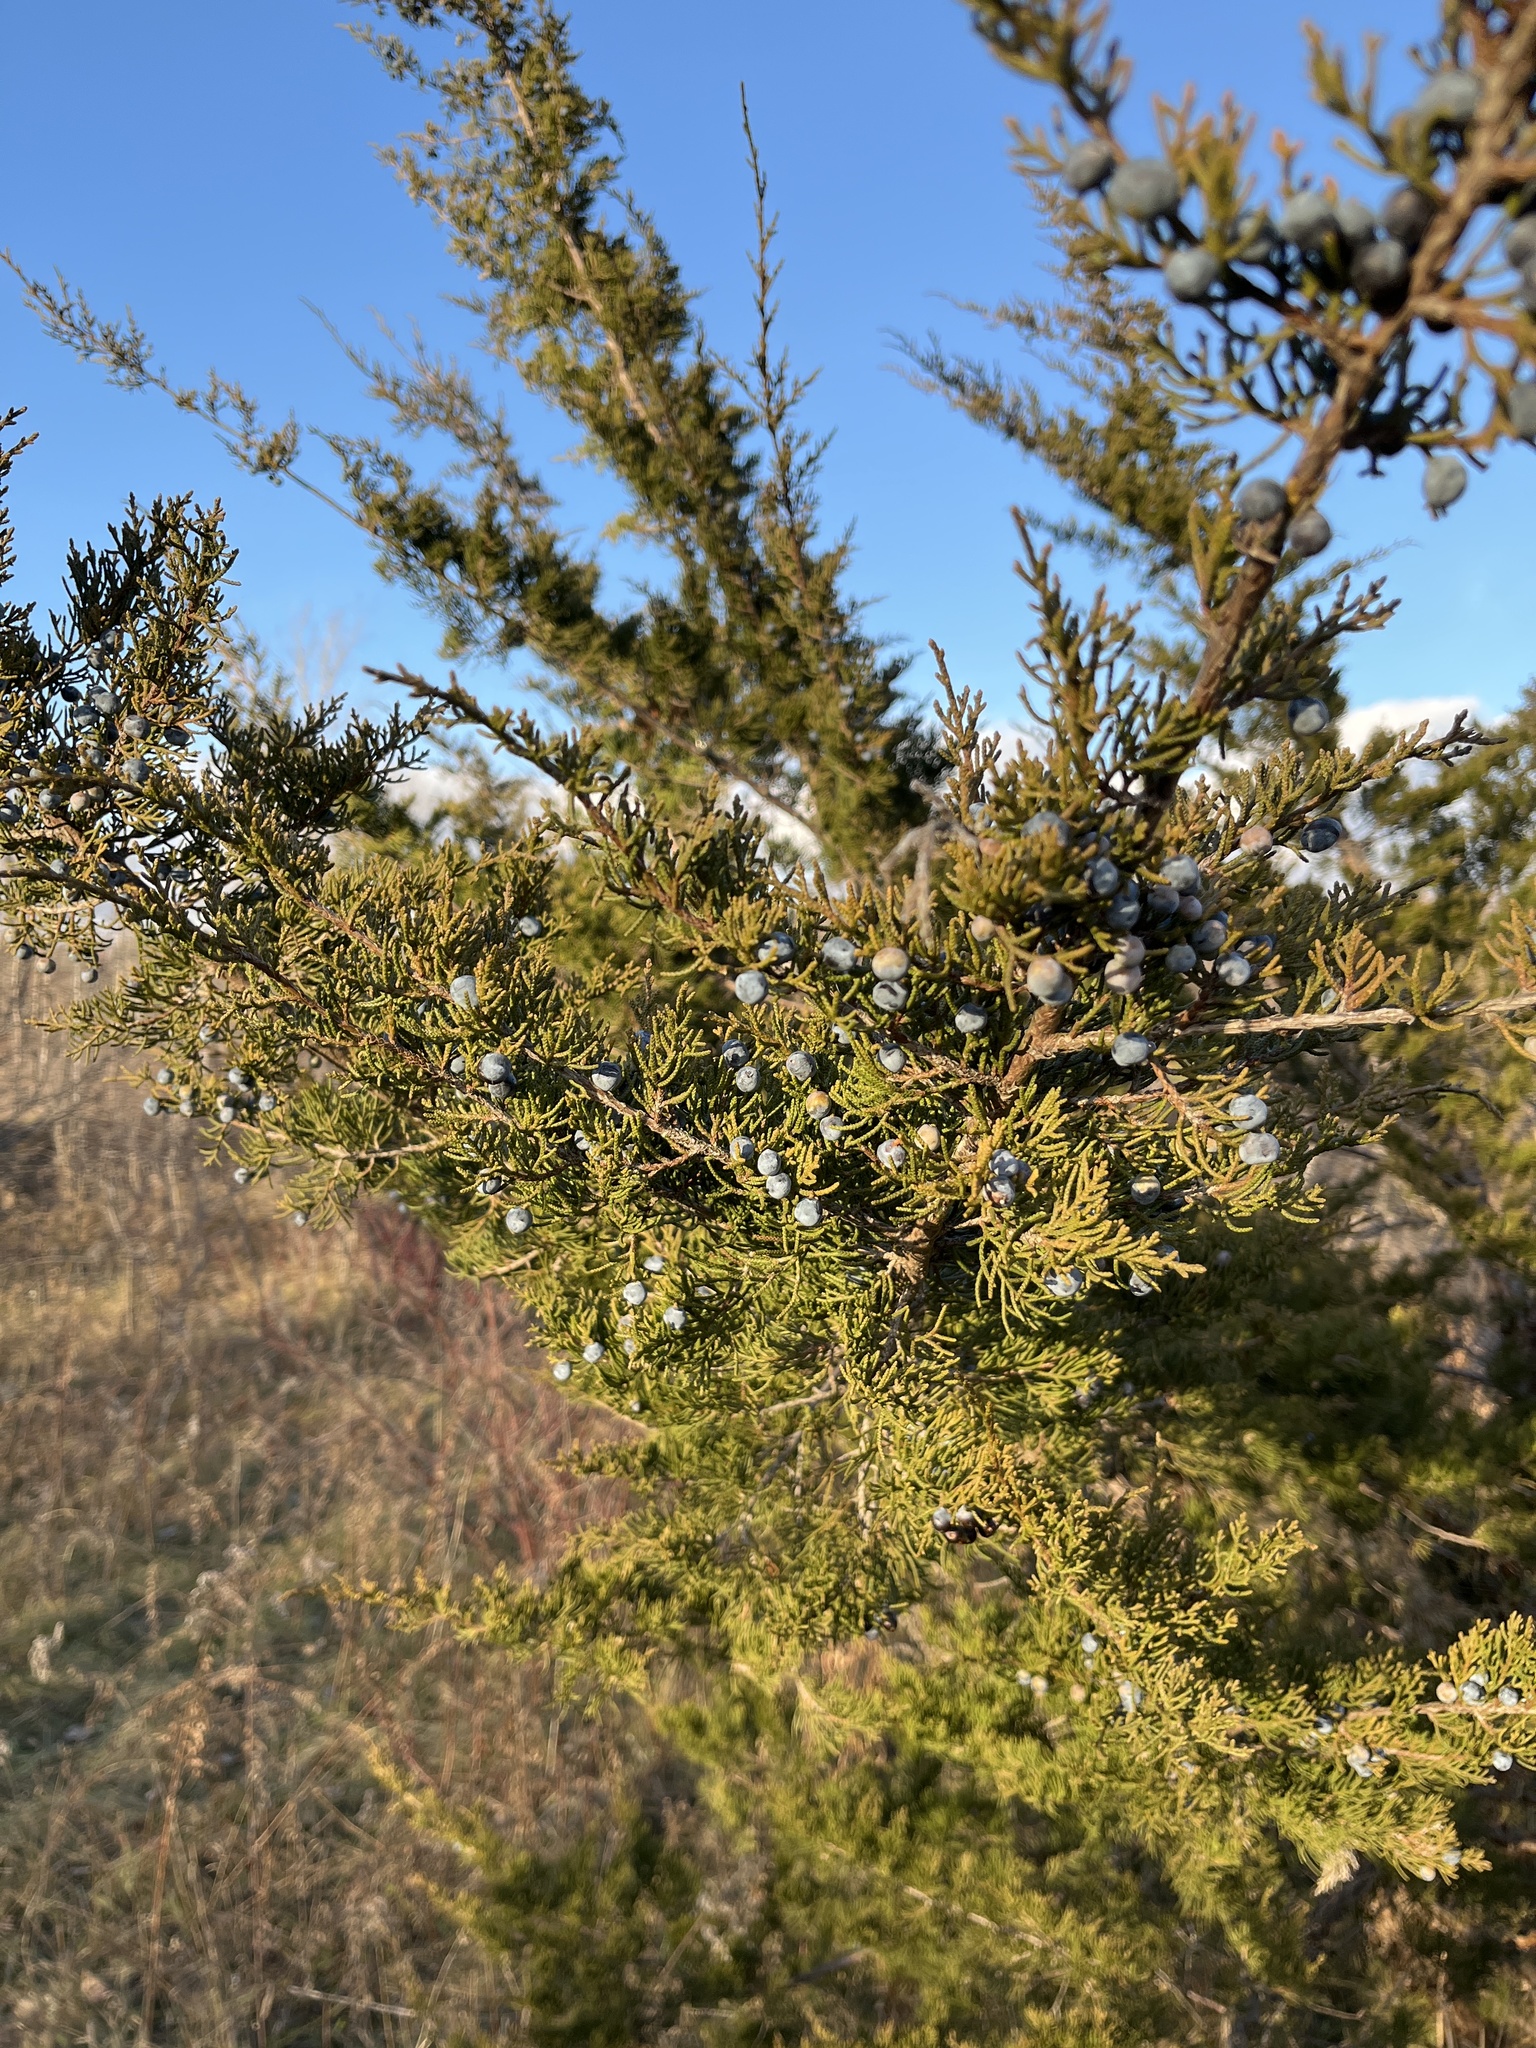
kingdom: Plantae
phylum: Tracheophyta
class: Pinopsida
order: Pinales
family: Cupressaceae
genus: Juniperus
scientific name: Juniperus virginiana
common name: Red juniper
